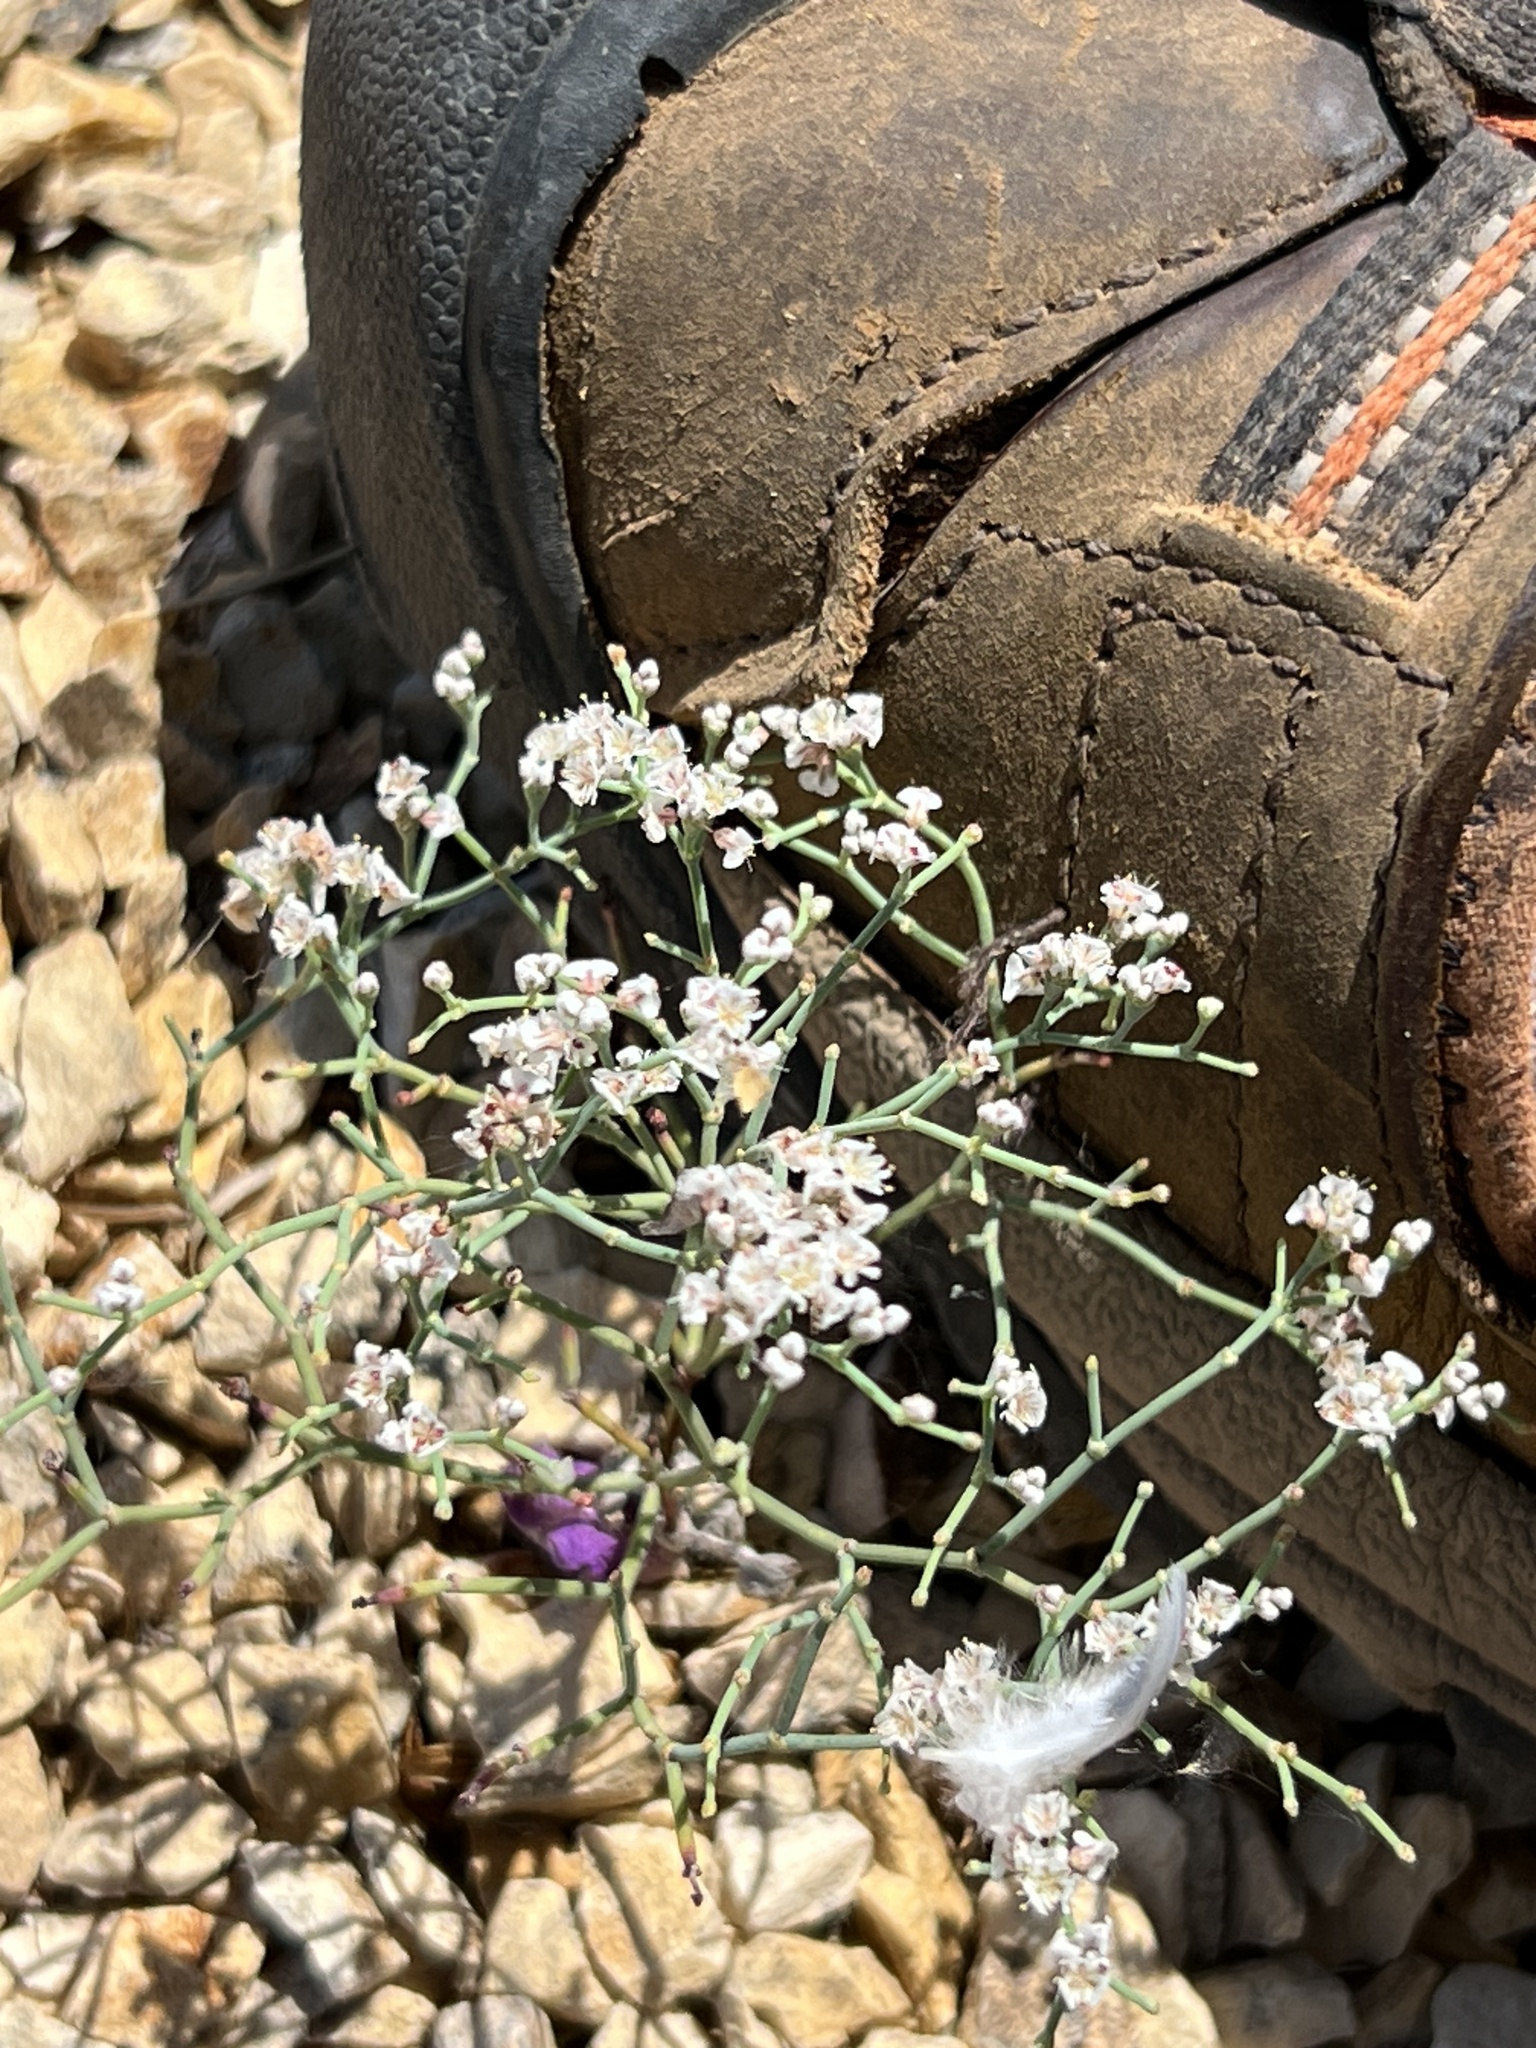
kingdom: Plantae
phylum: Tracheophyta
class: Magnoliopsida
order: Caryophyllales
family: Polygonaceae
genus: Eriogonum
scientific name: Eriogonum rotundifolium
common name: Round-leaf wild buckwheat
